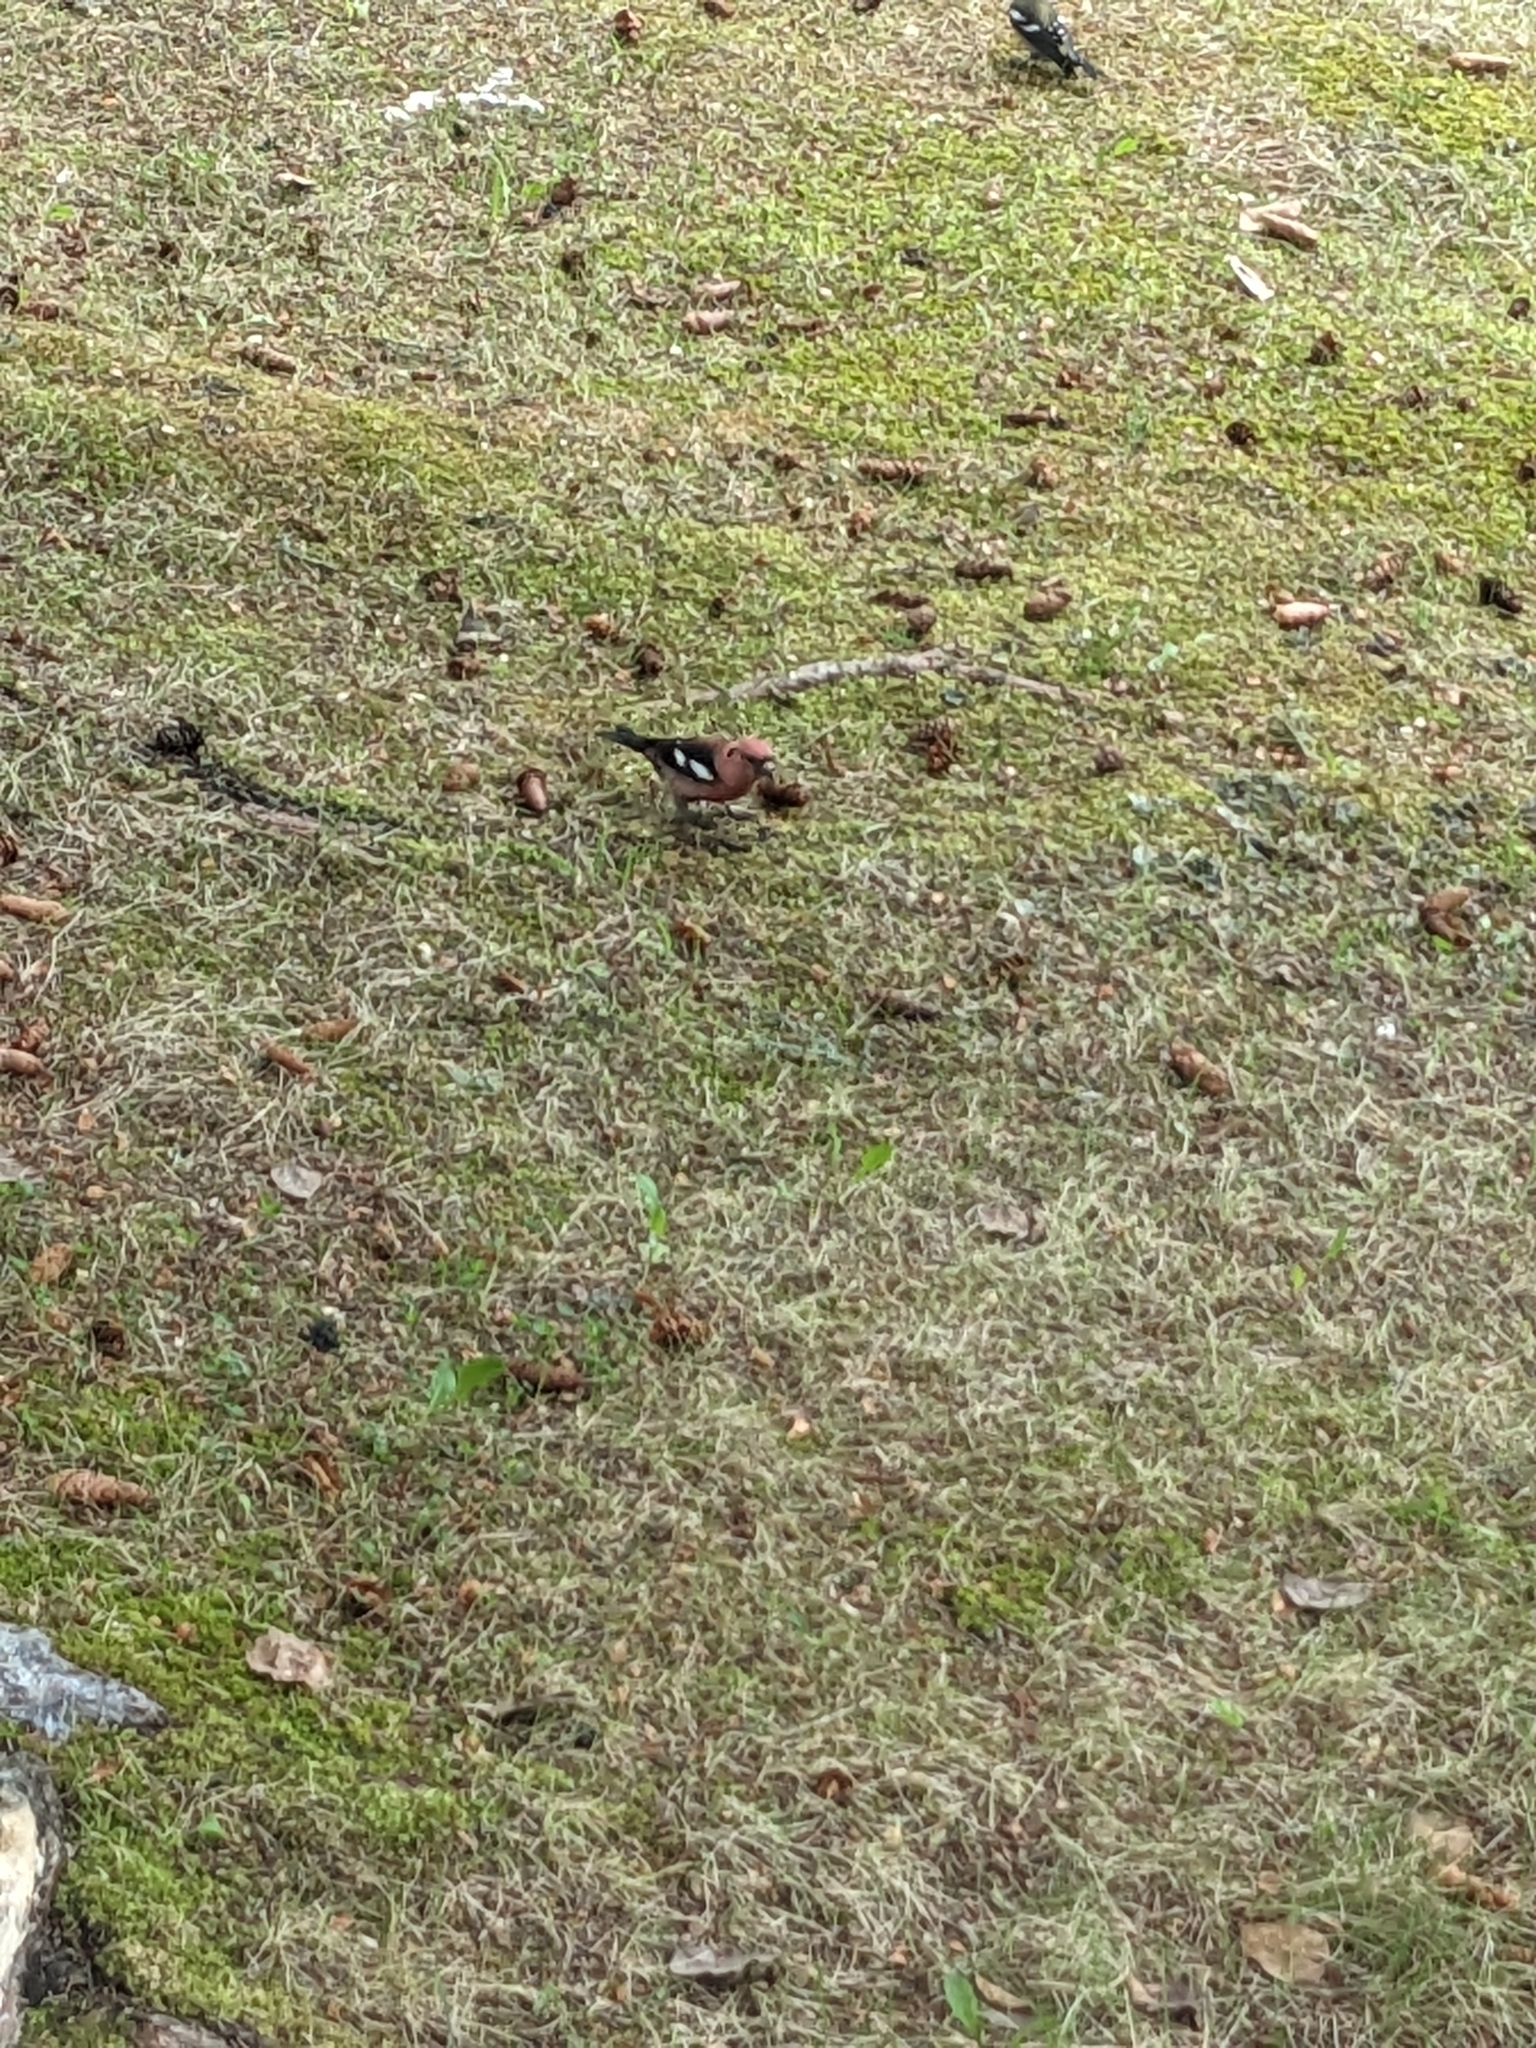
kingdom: Animalia
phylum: Chordata
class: Aves
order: Passeriformes
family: Fringillidae
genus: Loxia
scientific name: Loxia leucoptera
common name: Two-barred crossbill
